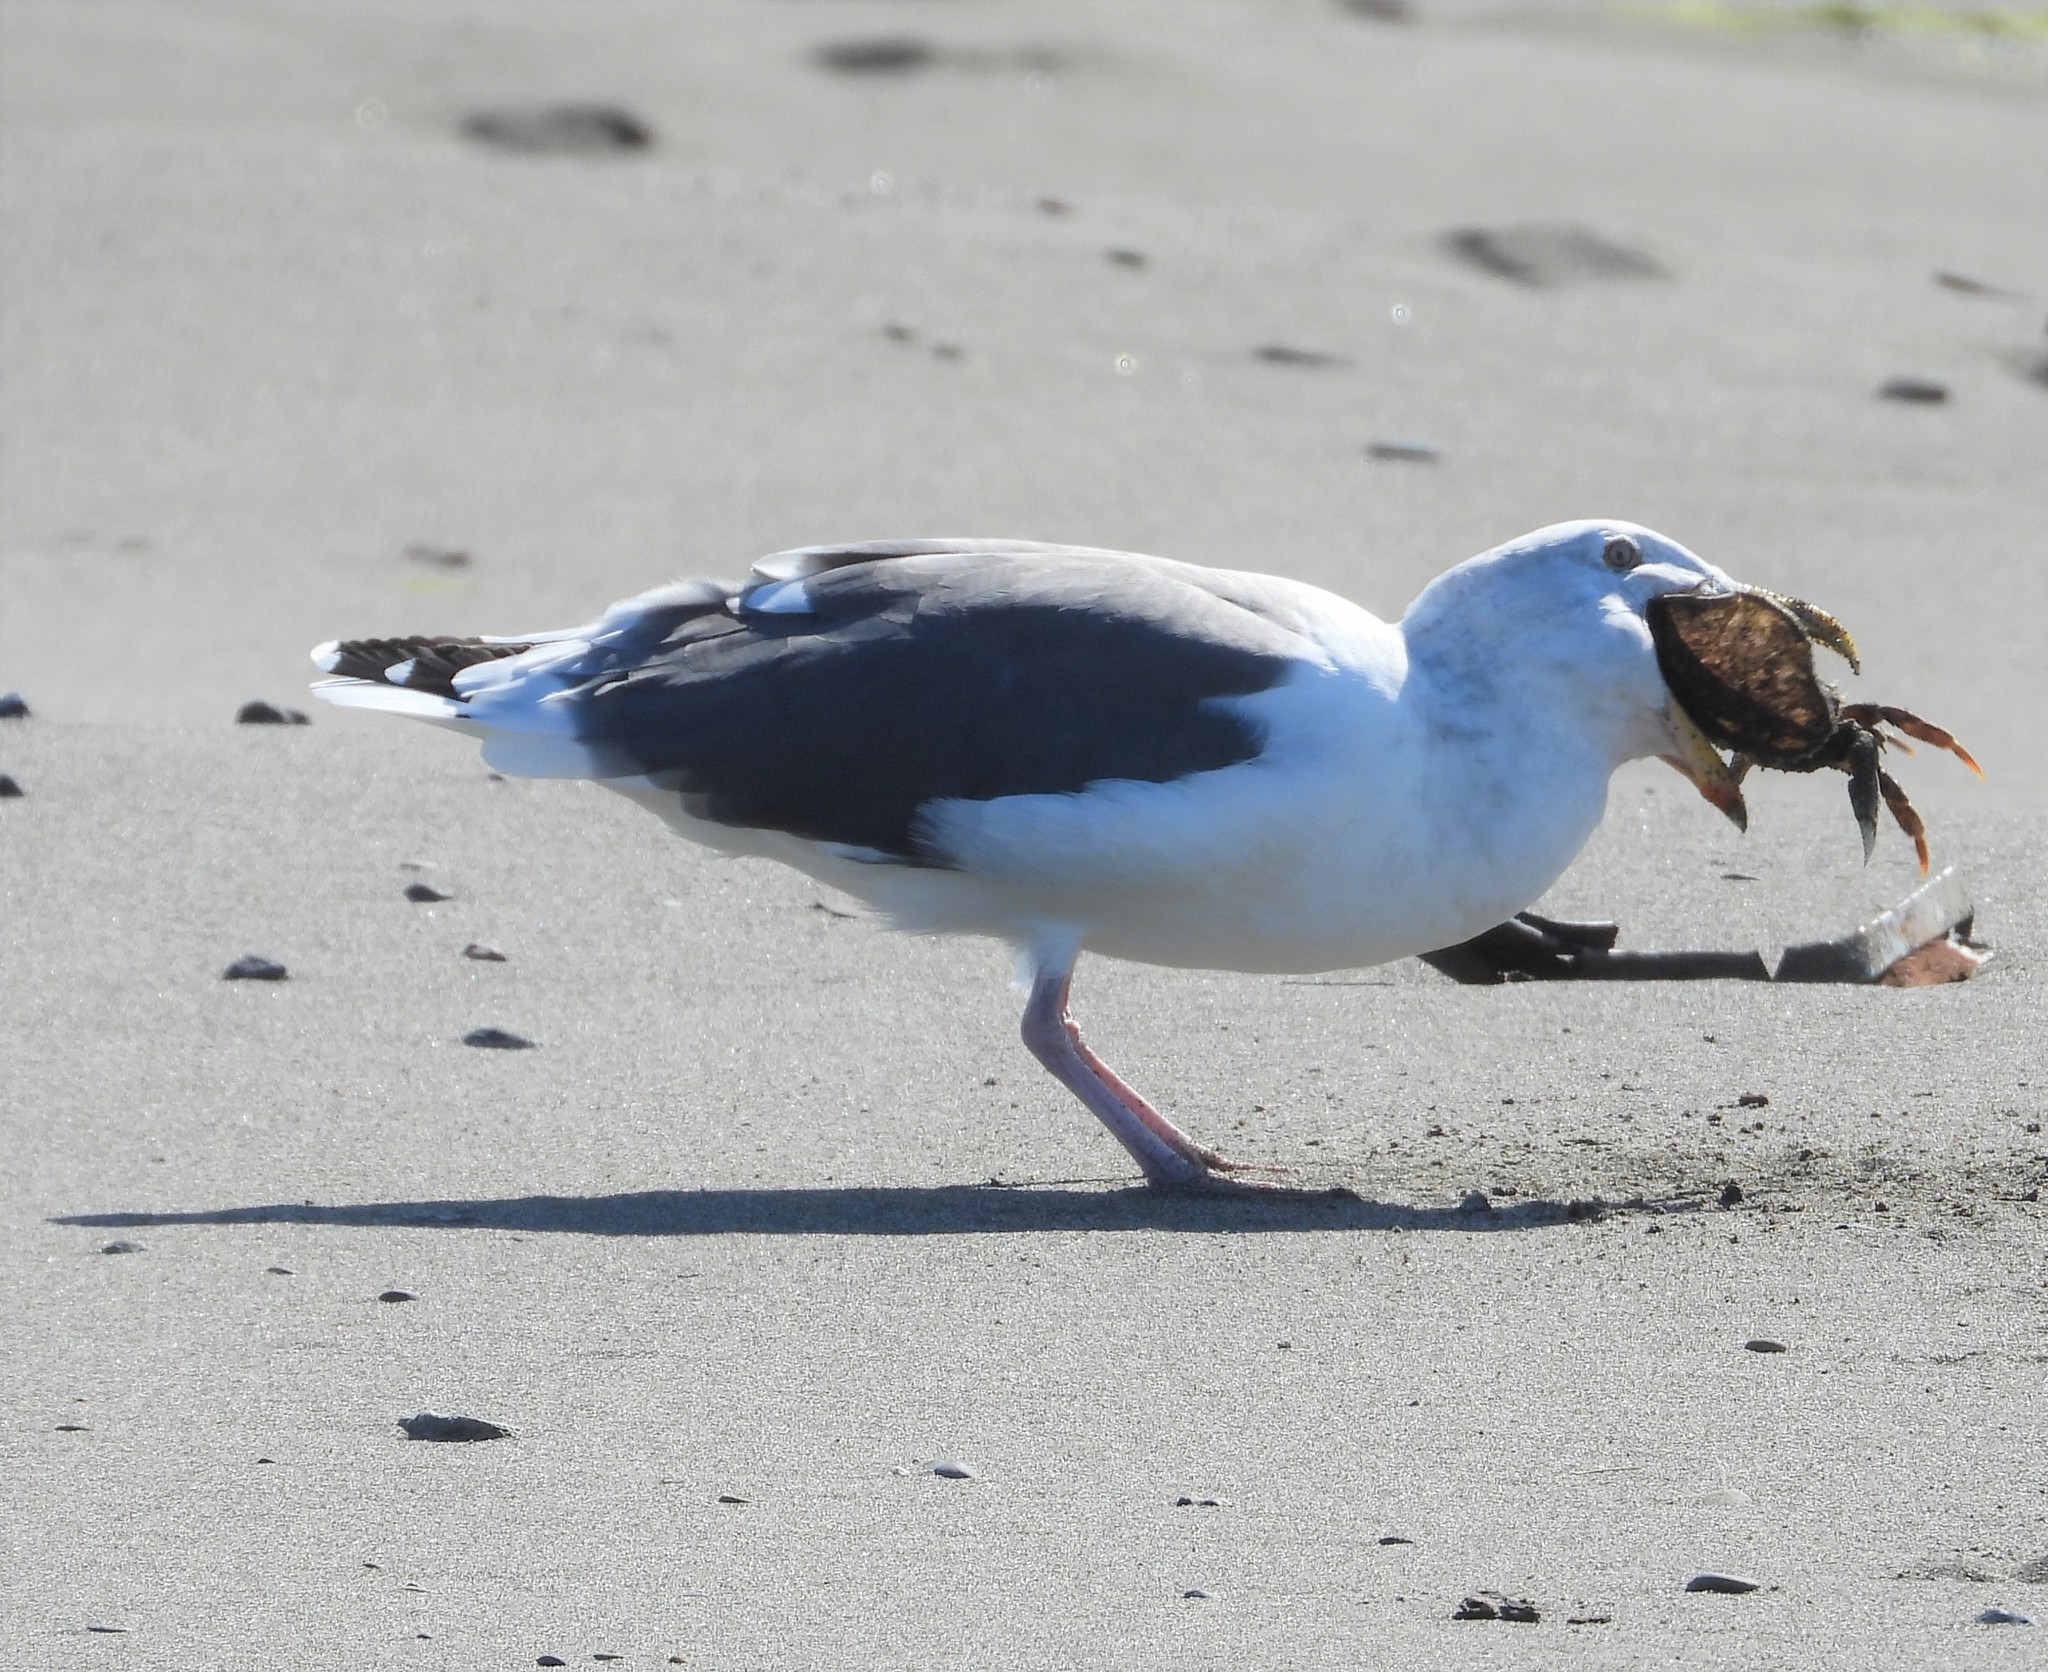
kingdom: Animalia
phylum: Chordata
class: Aves
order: Charadriiformes
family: Laridae
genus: Larus
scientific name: Larus occidentalis
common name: Western gull
